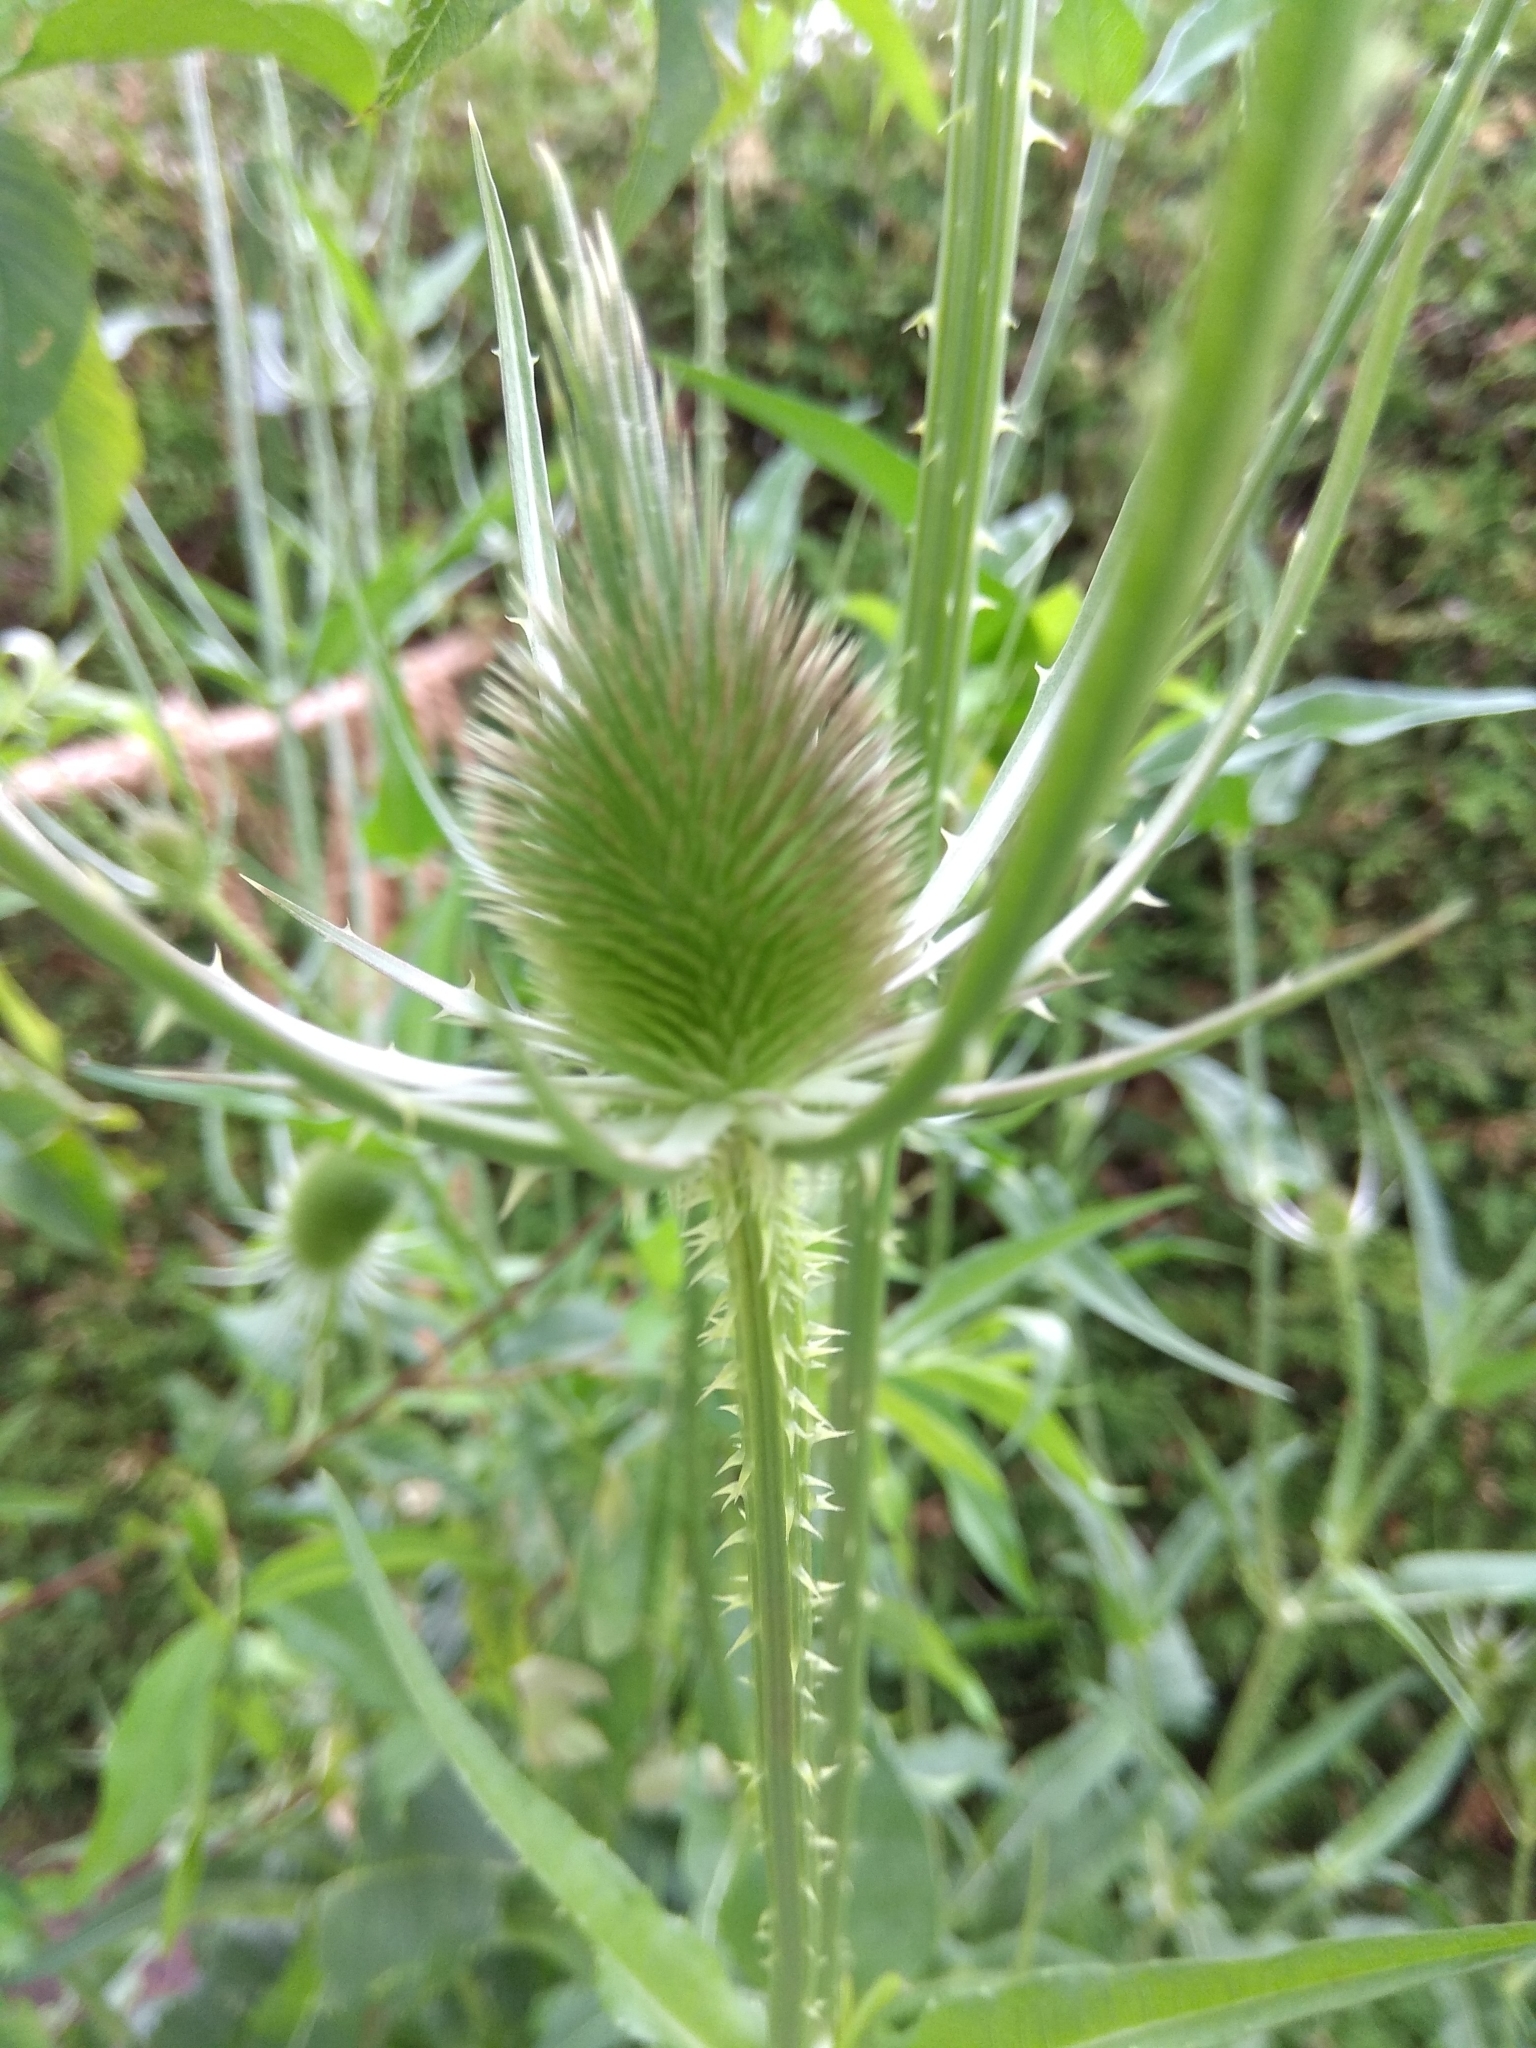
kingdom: Plantae
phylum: Tracheophyta
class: Magnoliopsida
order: Dipsacales
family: Caprifoliaceae
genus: Dipsacus
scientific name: Dipsacus fullonum
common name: Teasel
